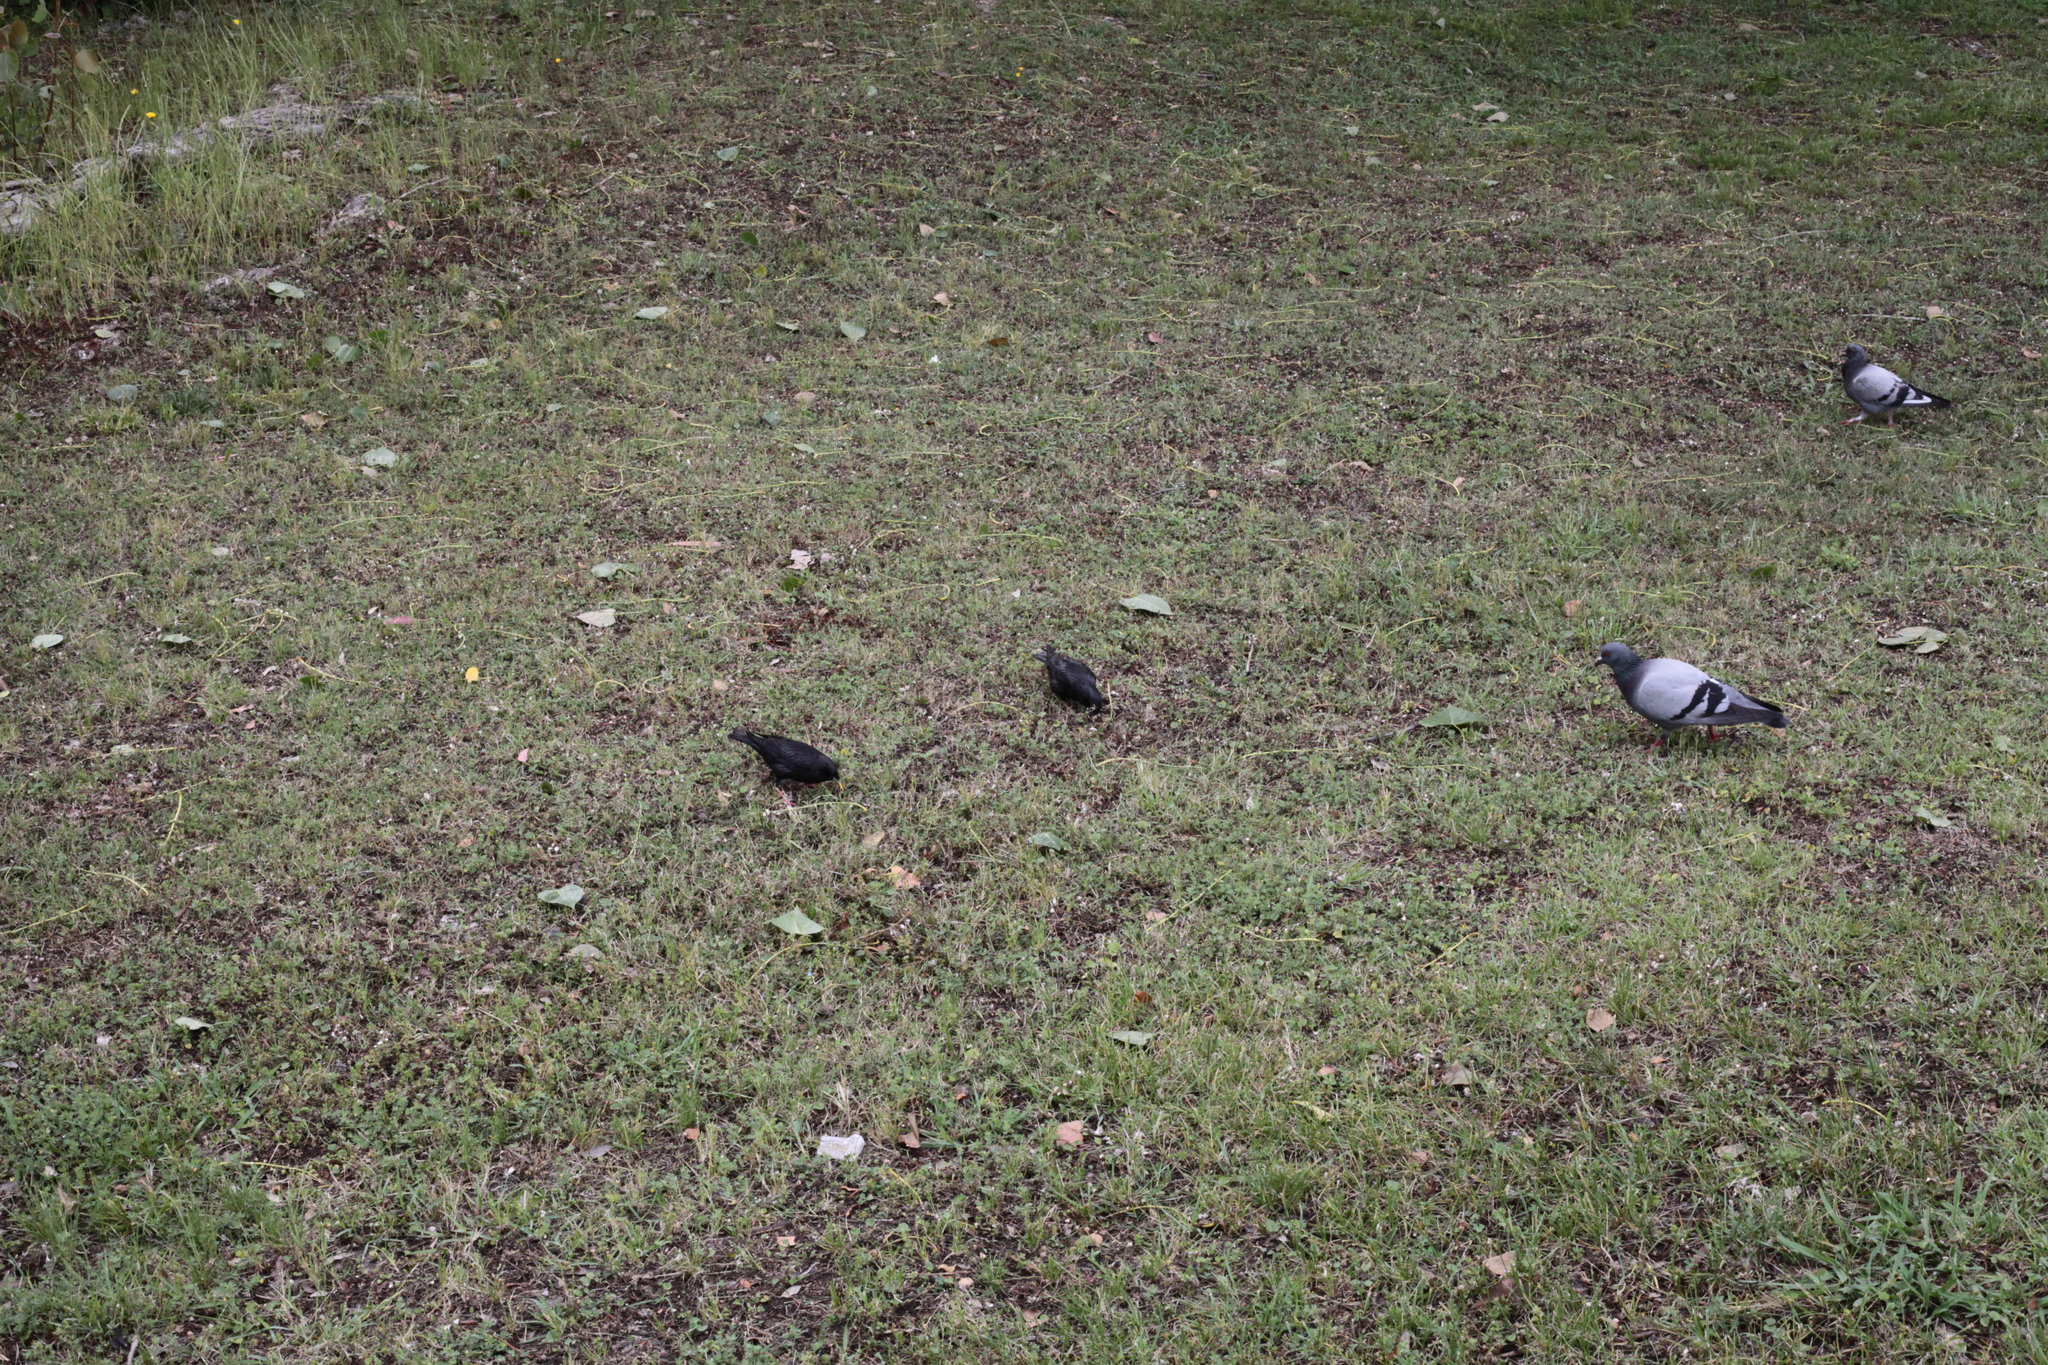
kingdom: Animalia
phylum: Chordata
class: Aves
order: Passeriformes
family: Turdidae
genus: Turdus
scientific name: Turdus merula
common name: Common blackbird
